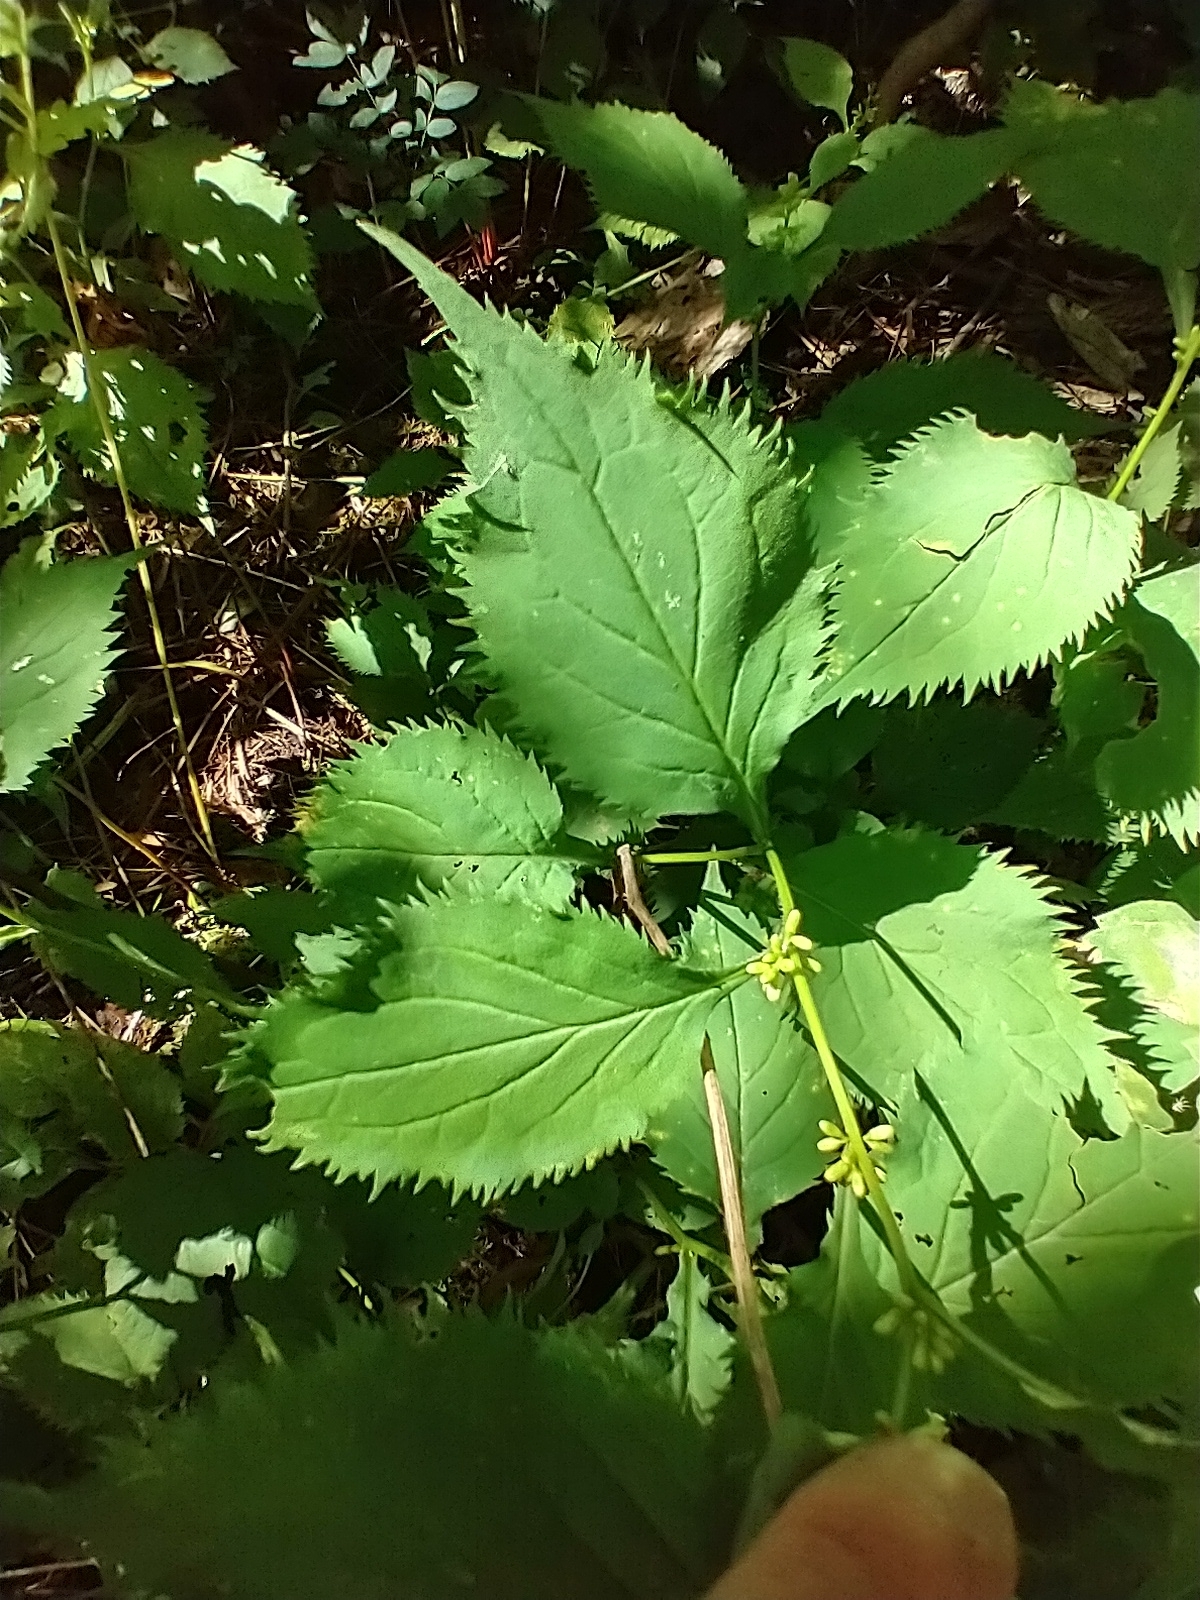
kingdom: Plantae
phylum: Tracheophyta
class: Magnoliopsida
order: Asterales
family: Asteraceae
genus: Solidago
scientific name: Solidago flexicaulis
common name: Zig-zag goldenrod
